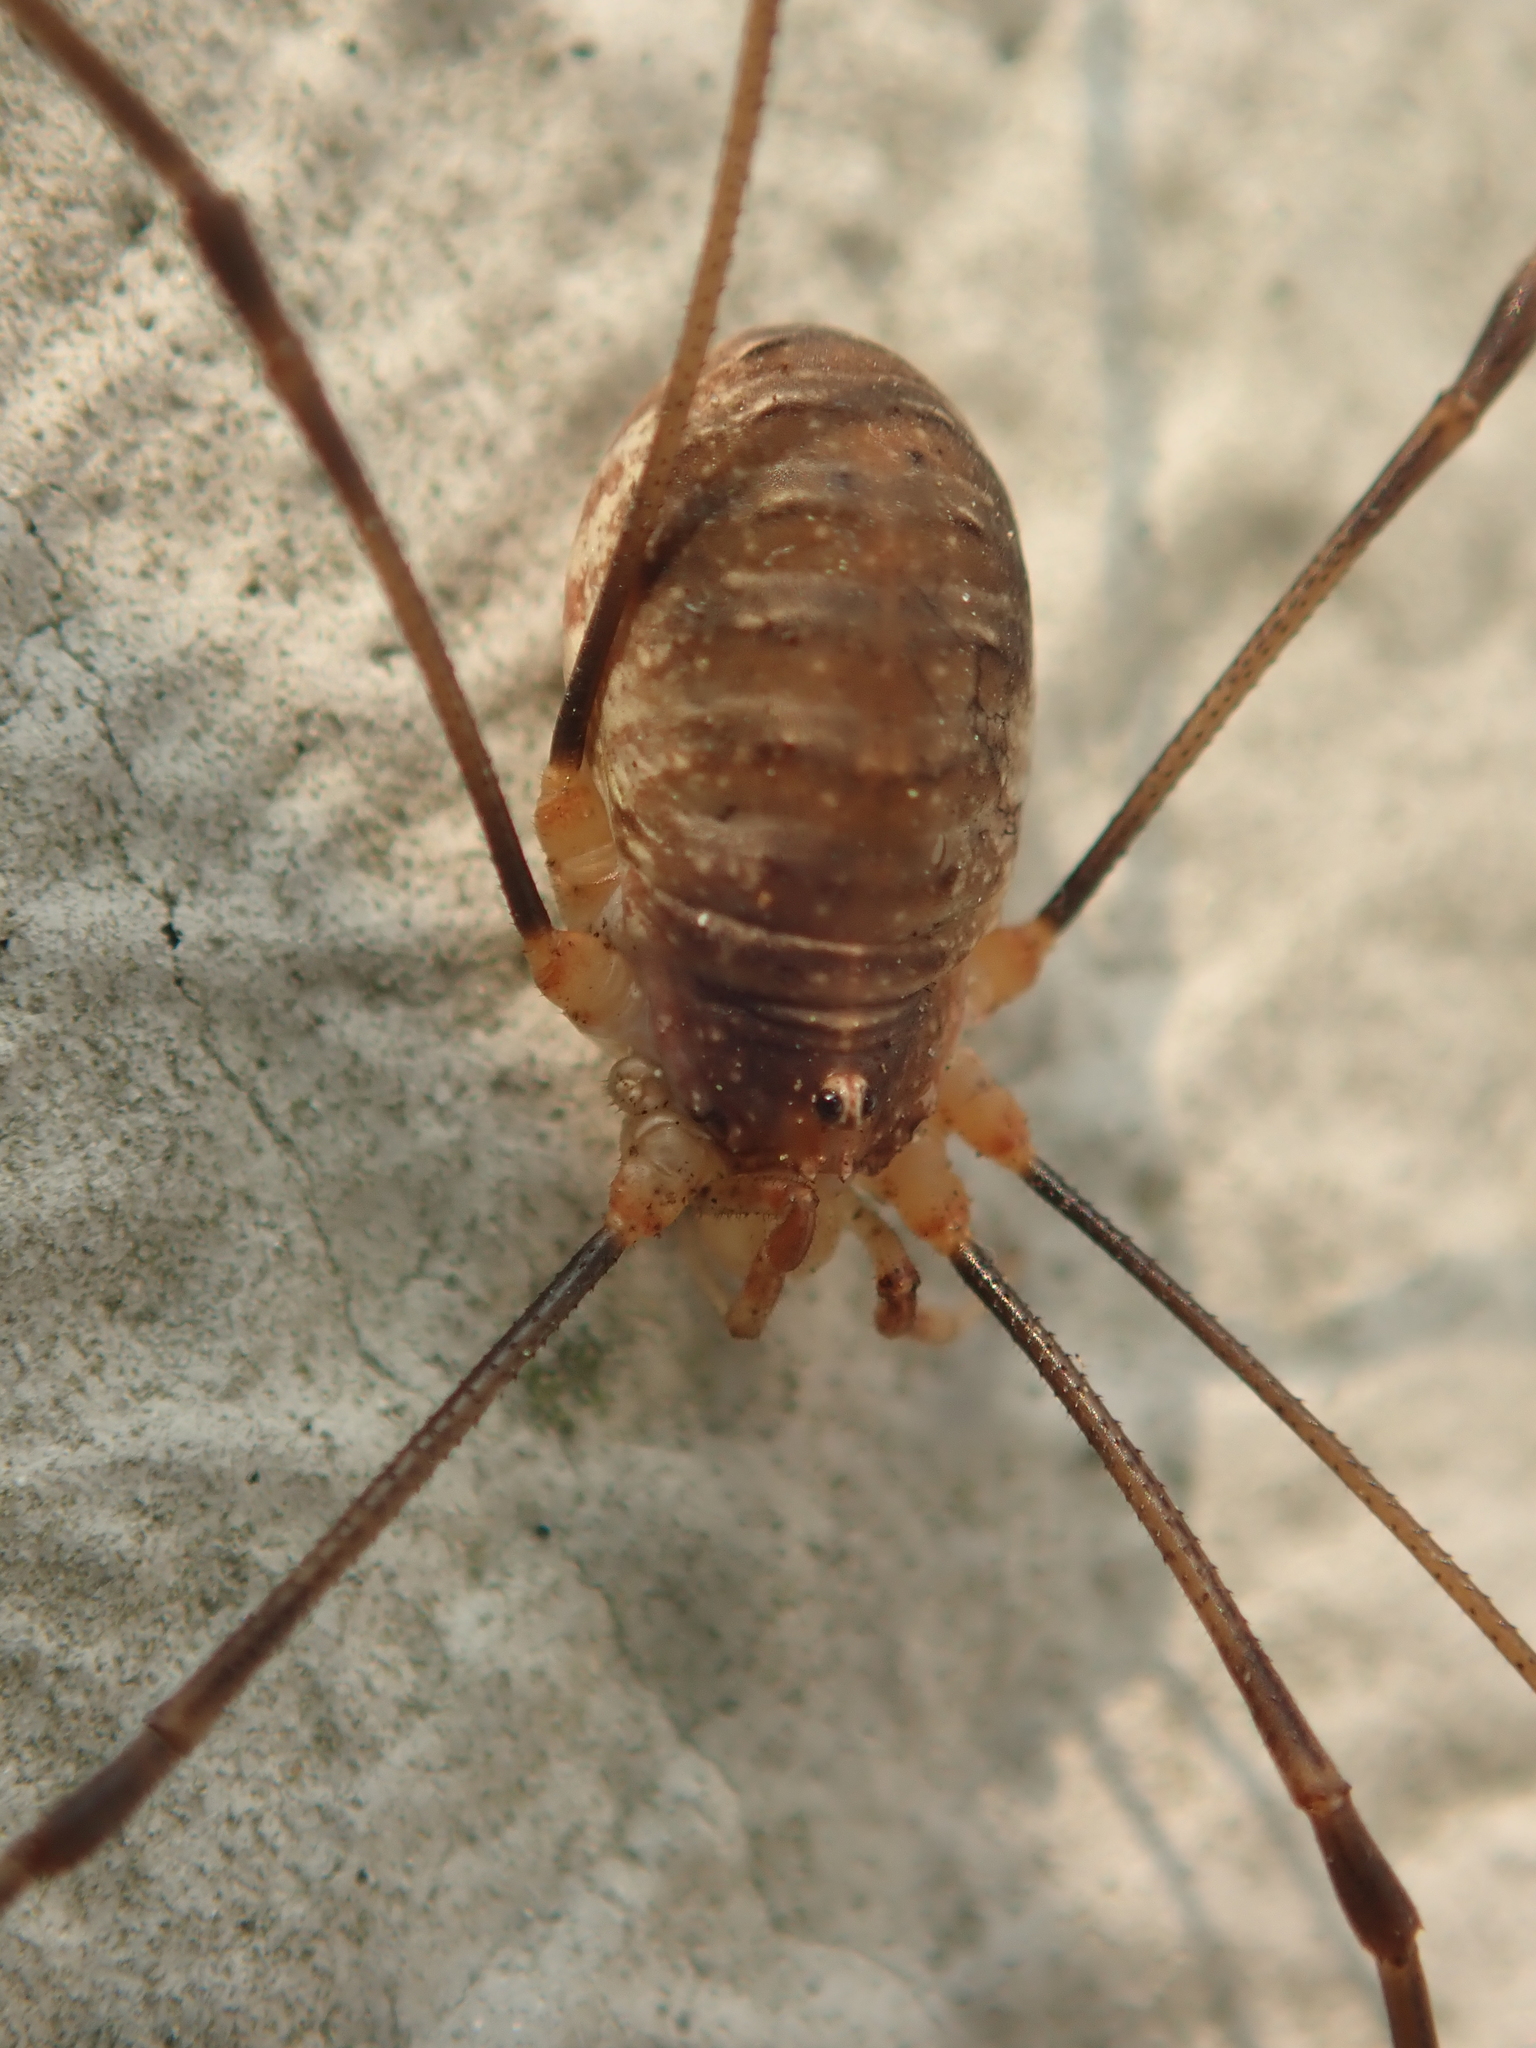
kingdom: Animalia
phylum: Arthropoda
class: Arachnida
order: Opiliones
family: Phalangiidae
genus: Opilio
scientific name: Opilio canestrinii
